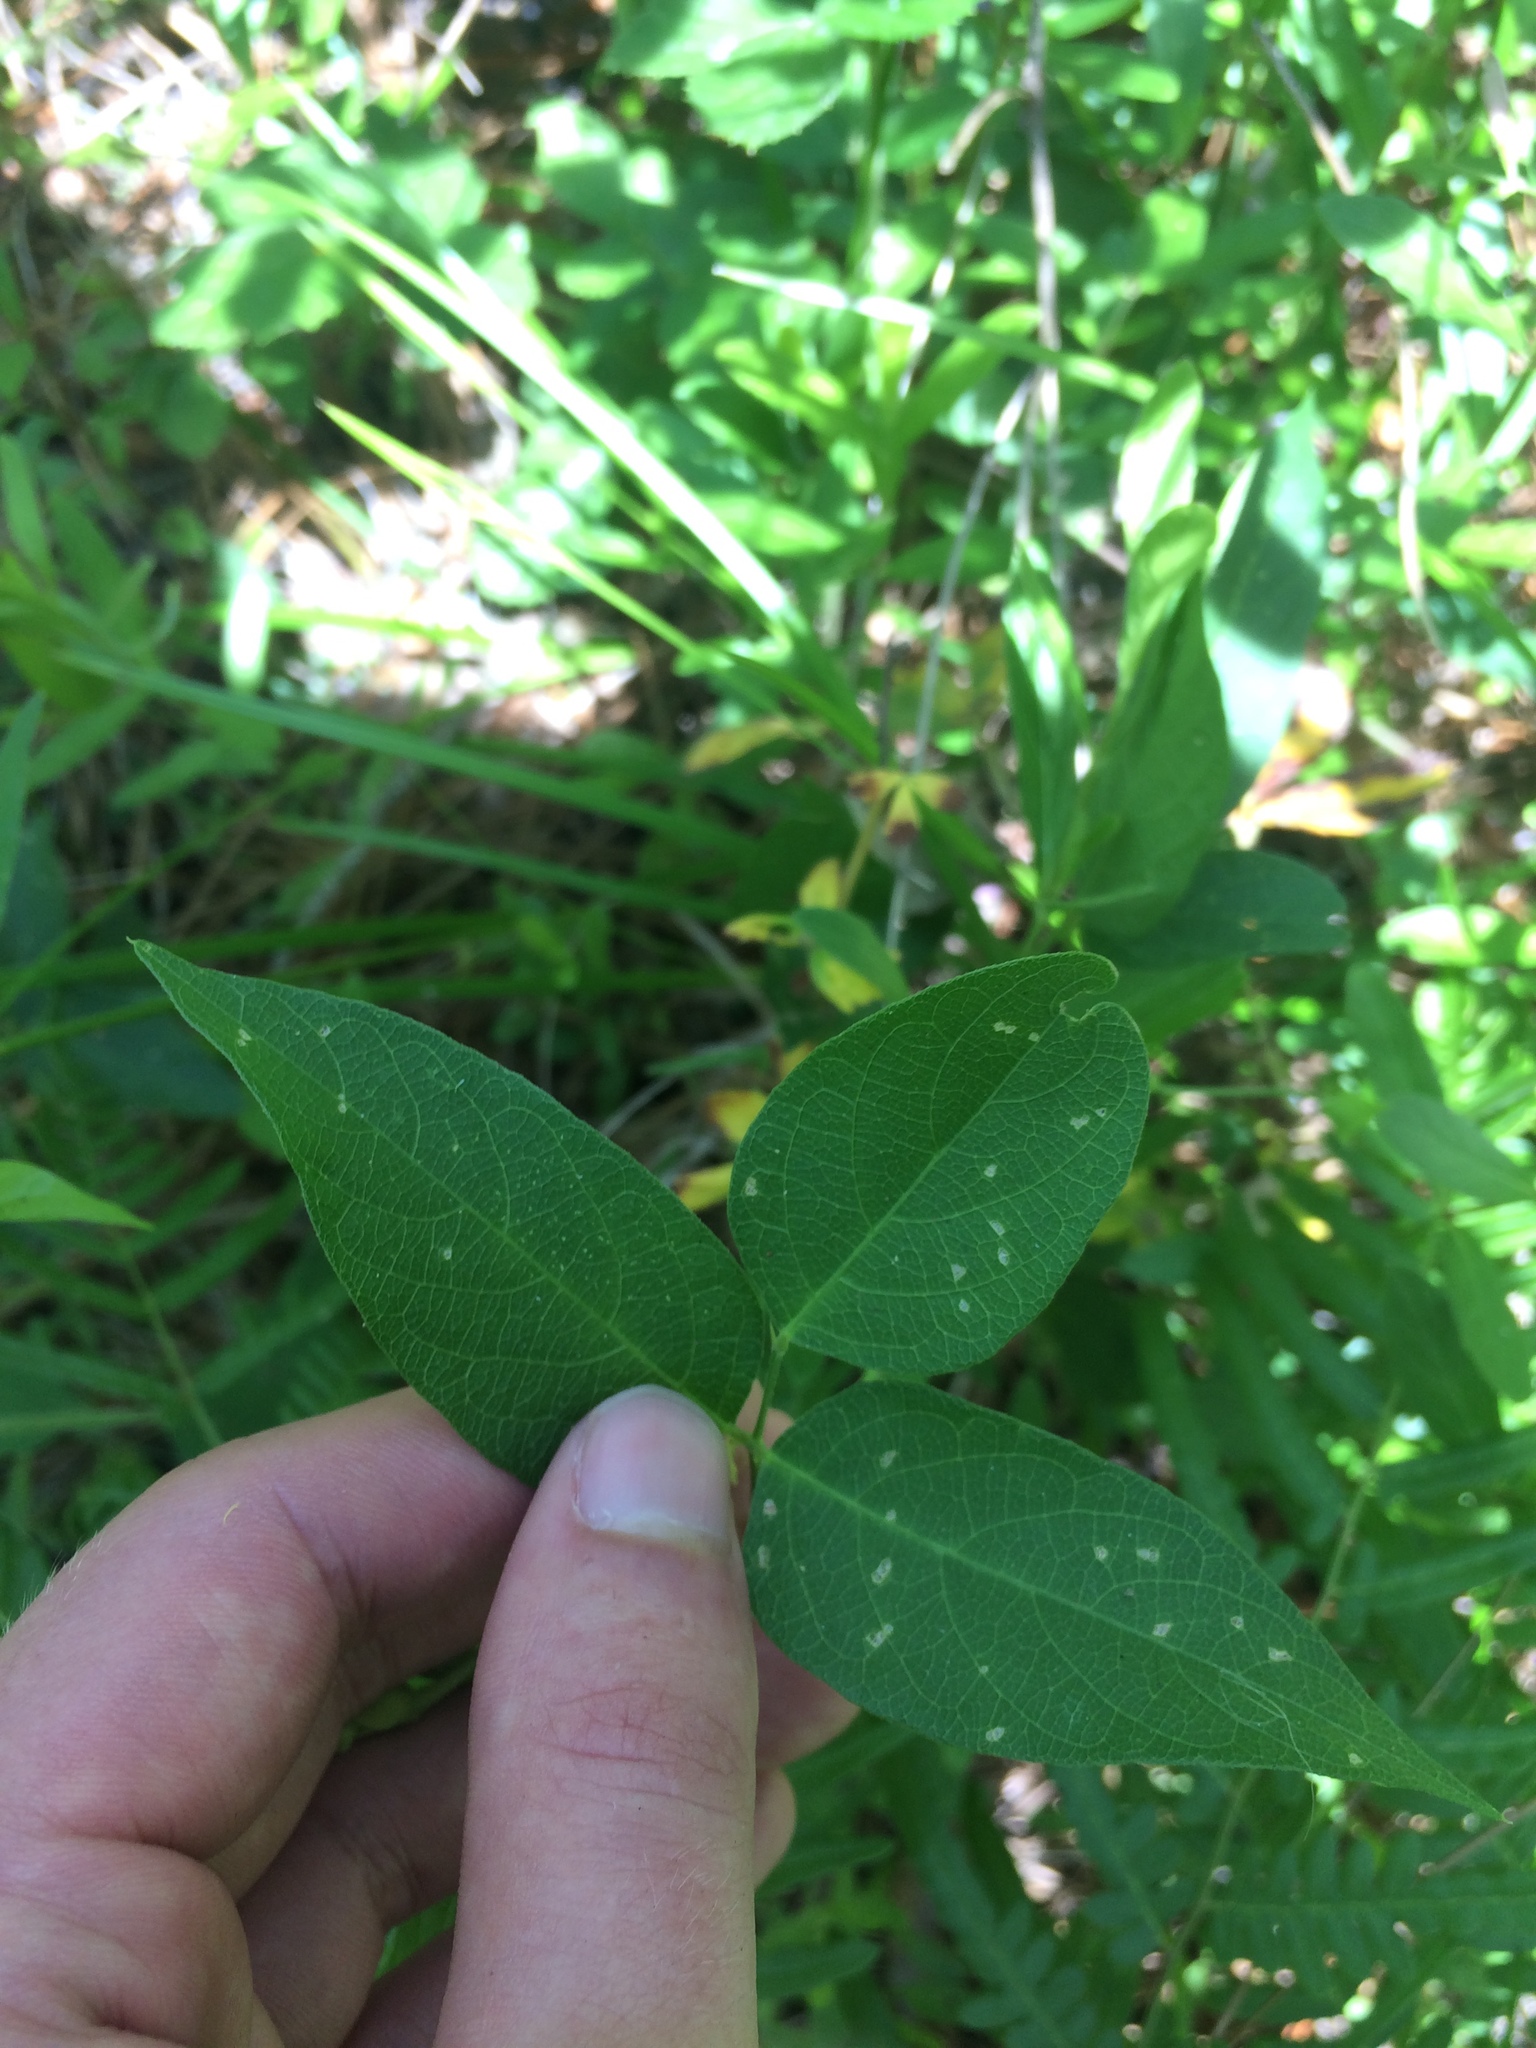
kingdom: Plantae
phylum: Tracheophyta
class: Magnoliopsida
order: Fabales
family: Fabaceae
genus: Centrosema
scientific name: Centrosema virginianum
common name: Butterfly-pea
